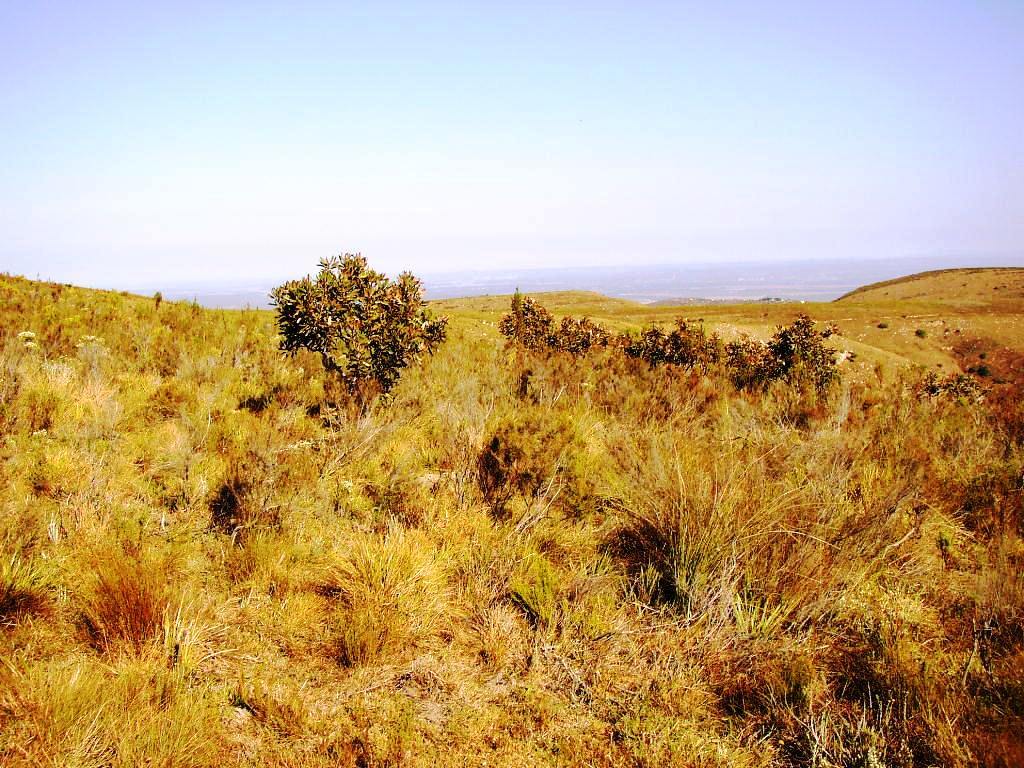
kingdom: Plantae
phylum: Tracheophyta
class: Magnoliopsida
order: Proteales
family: Proteaceae
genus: Protea
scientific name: Protea lorifolia
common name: Strap-leaved protea
